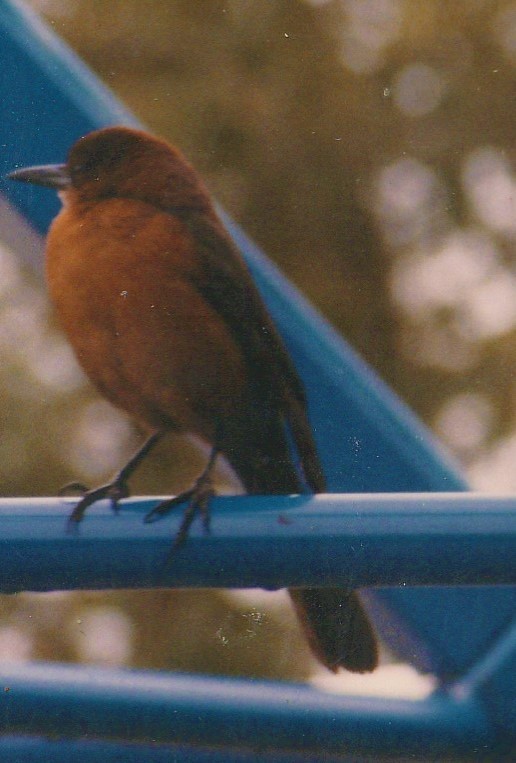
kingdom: Animalia
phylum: Chordata
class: Aves
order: Passeriformes
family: Icteridae
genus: Quiscalus
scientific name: Quiscalus major
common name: Boat-tailed grackle
